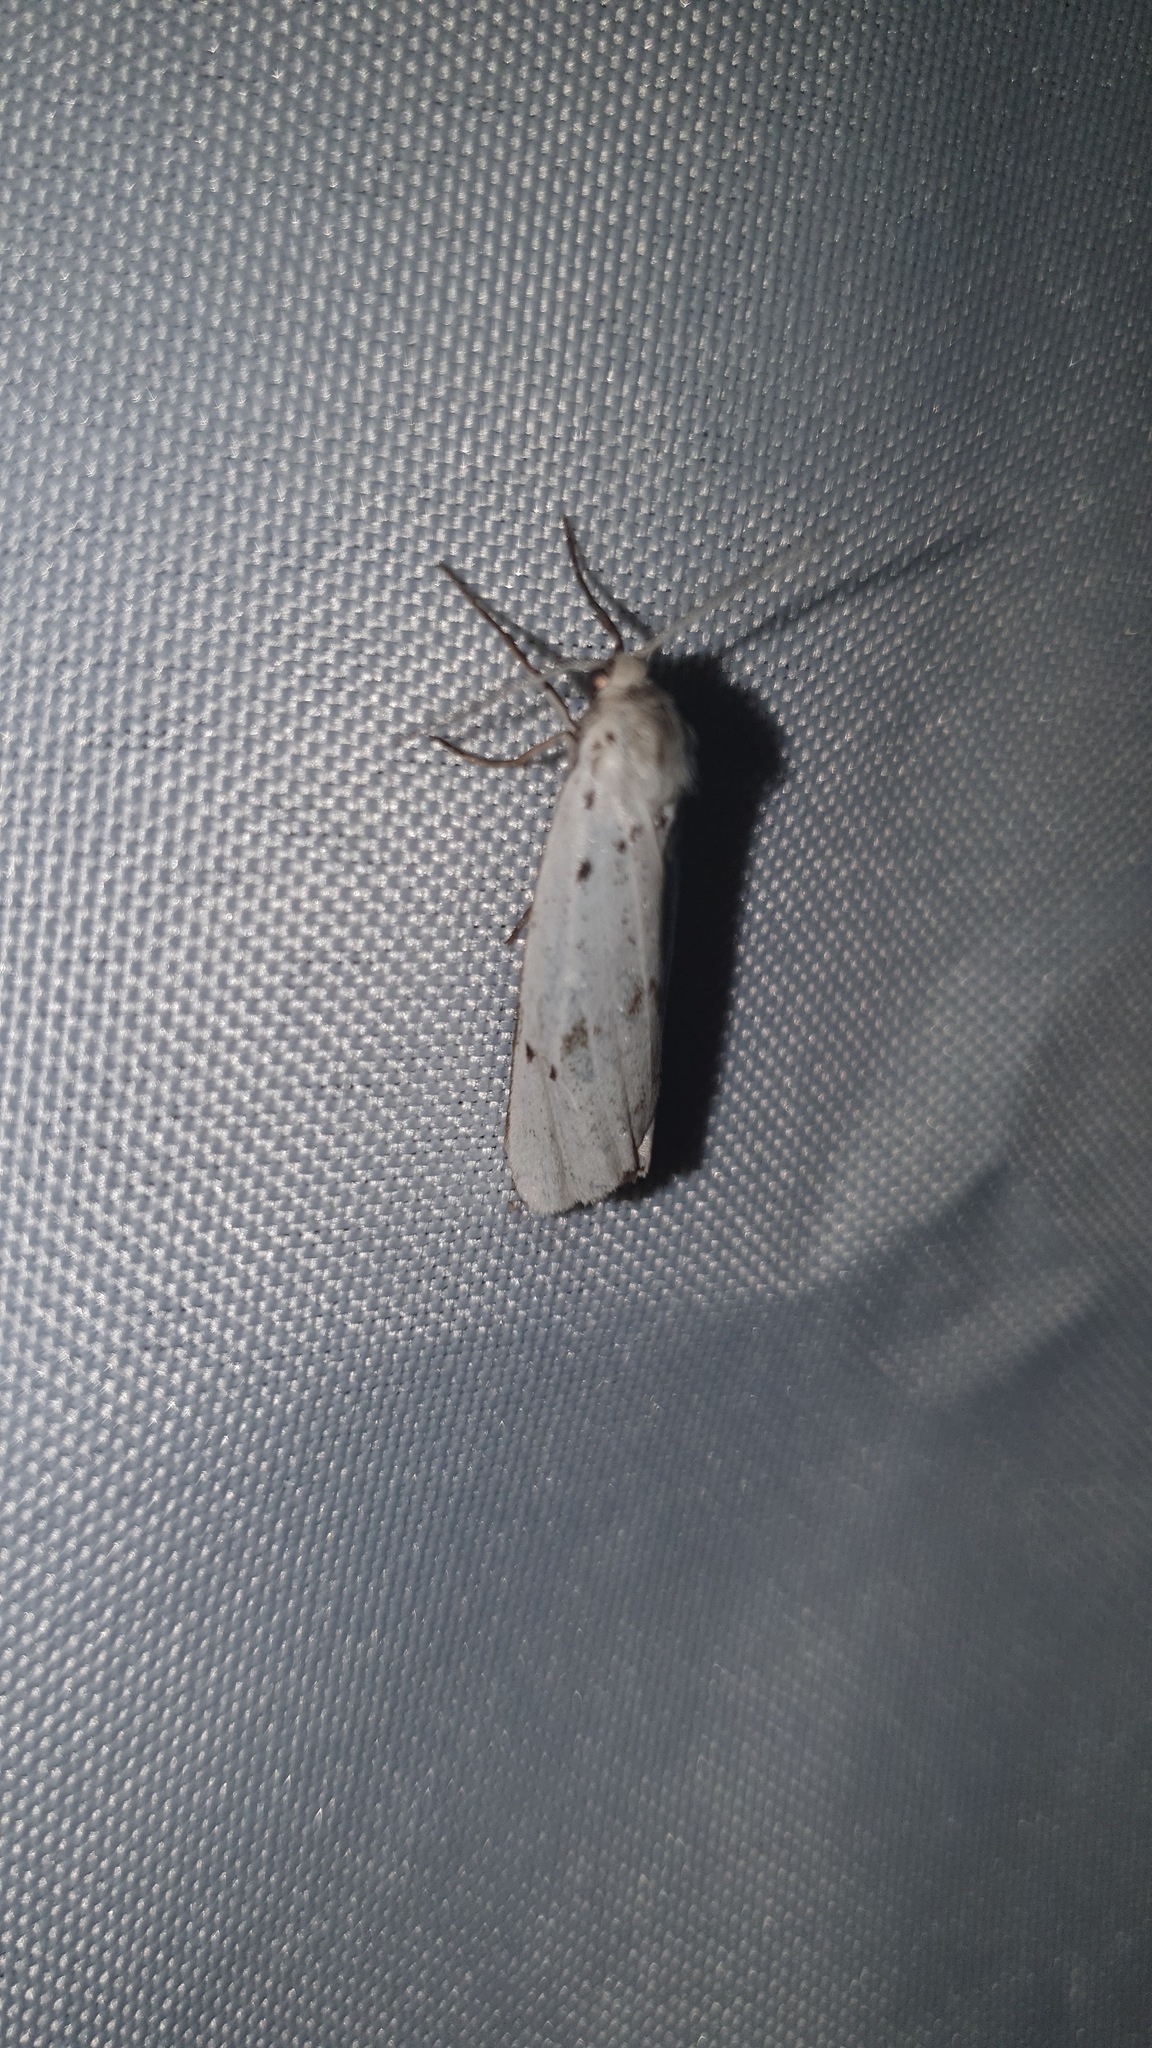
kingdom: Animalia
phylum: Arthropoda
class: Insecta
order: Lepidoptera
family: Erebidae
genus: Coscinia
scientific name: Coscinia cribraria
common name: Speckled footman
